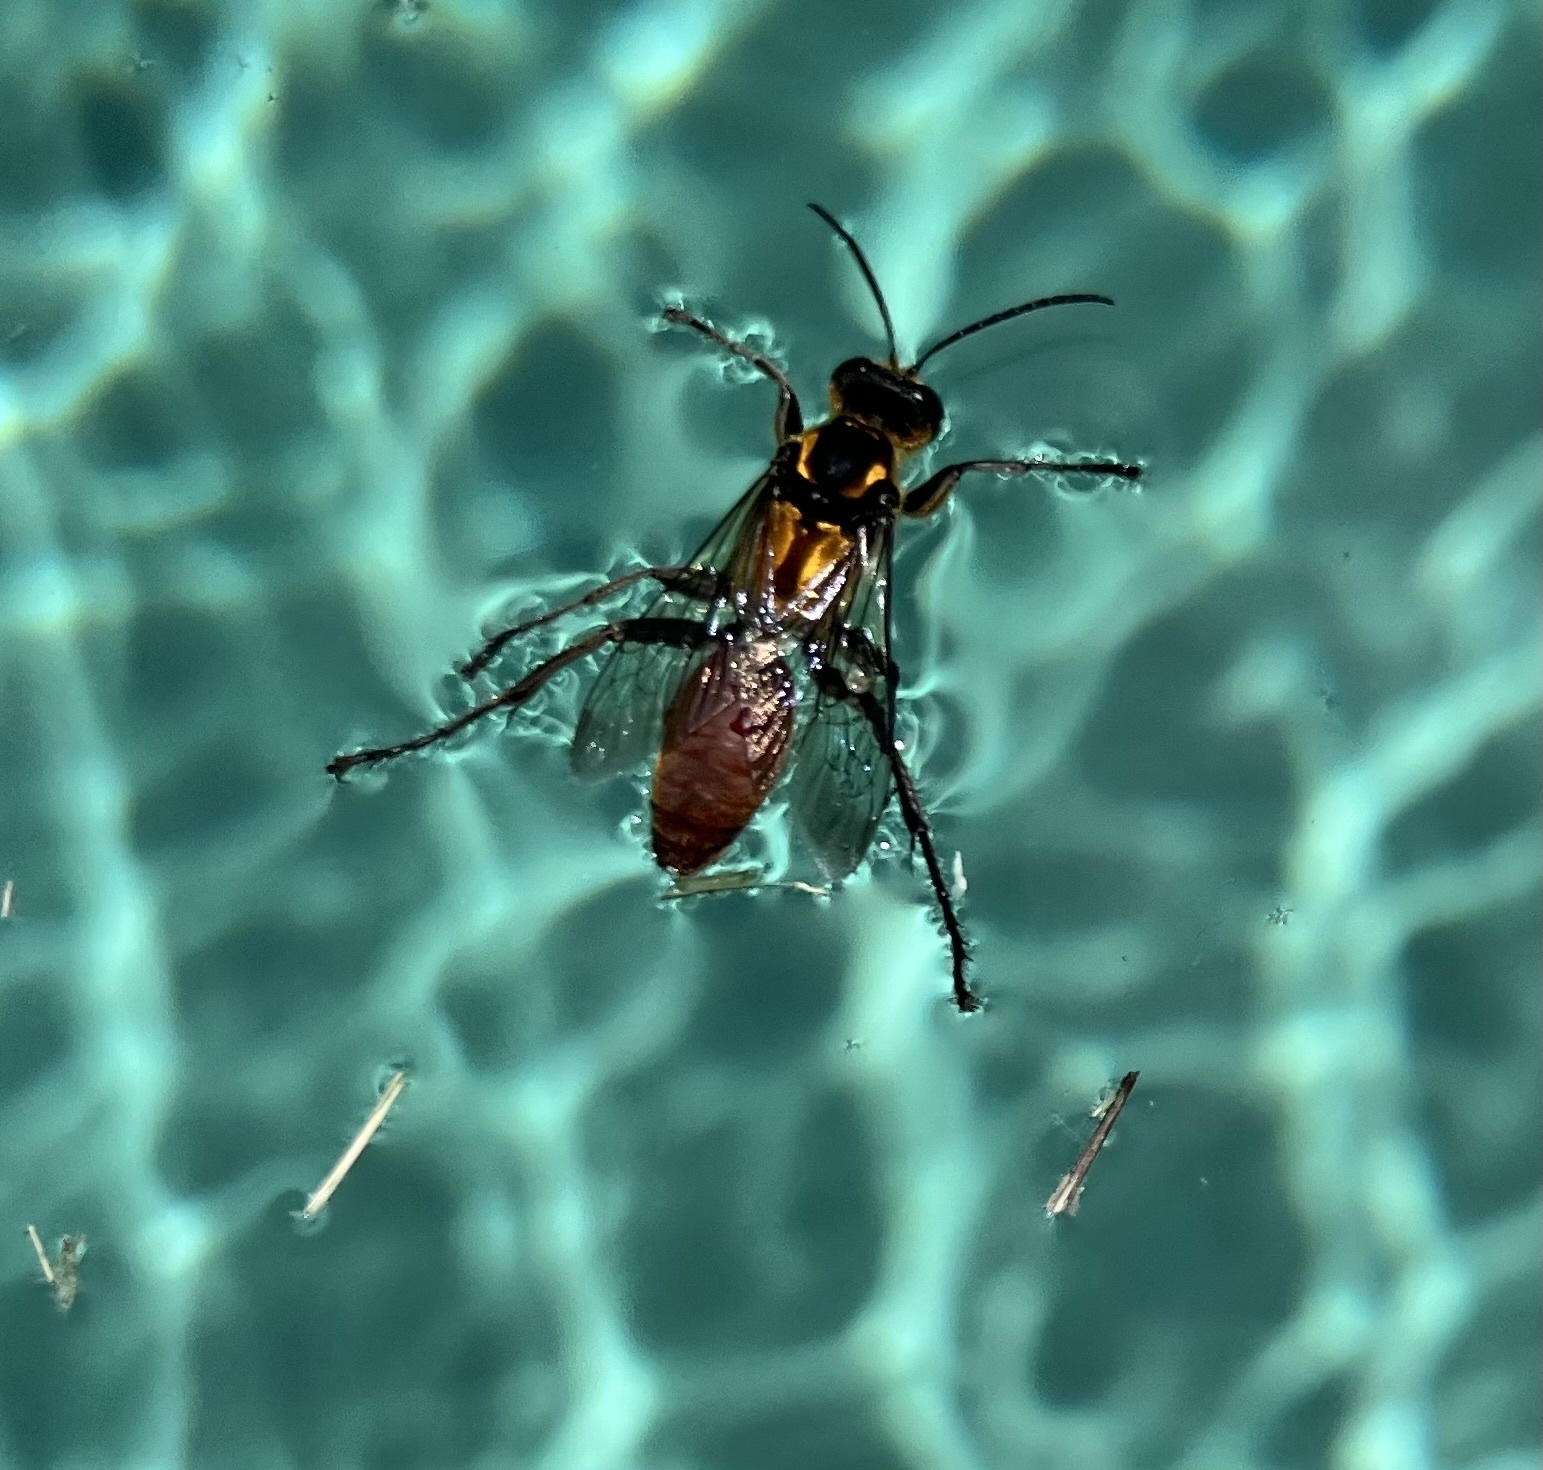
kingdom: Animalia
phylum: Arthropoda
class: Insecta
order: Hymenoptera
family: Sphecidae
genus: Sphex
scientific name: Sphex habenus
